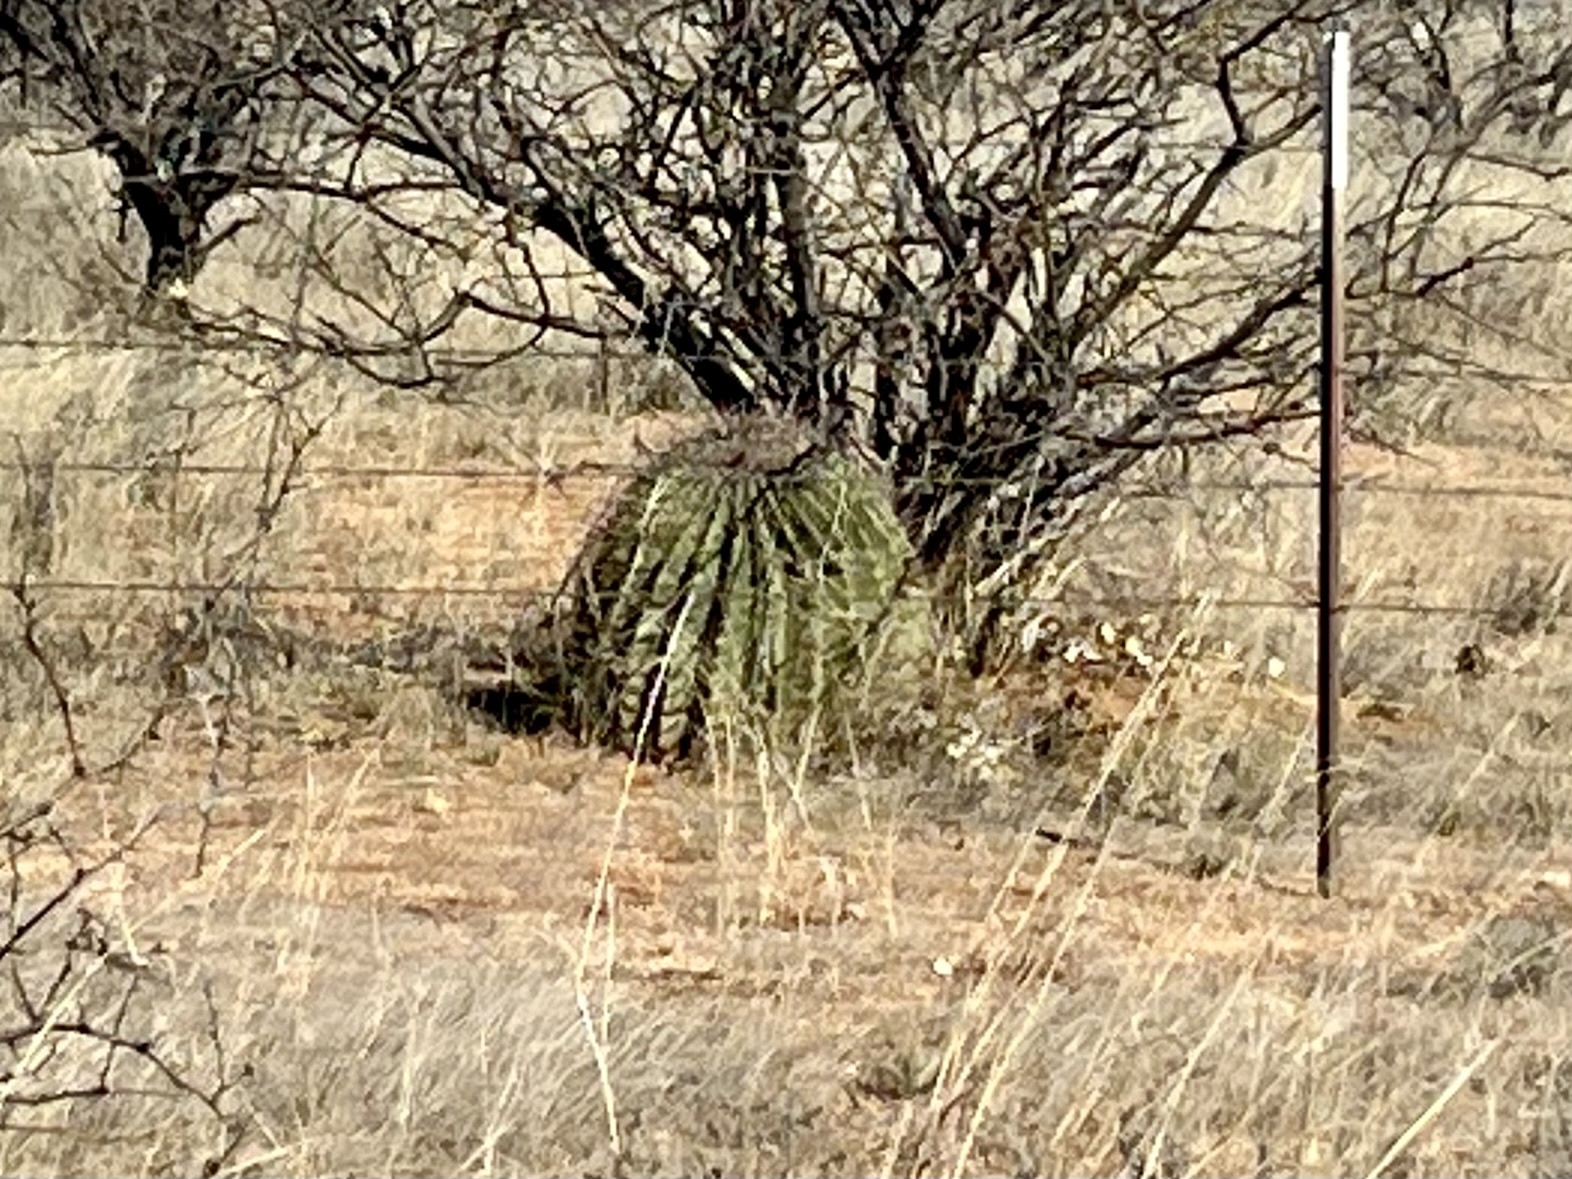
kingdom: Plantae
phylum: Tracheophyta
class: Magnoliopsida
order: Caryophyllales
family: Cactaceae
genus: Ferocactus
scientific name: Ferocactus wislizeni
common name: Candy barrel cactus
